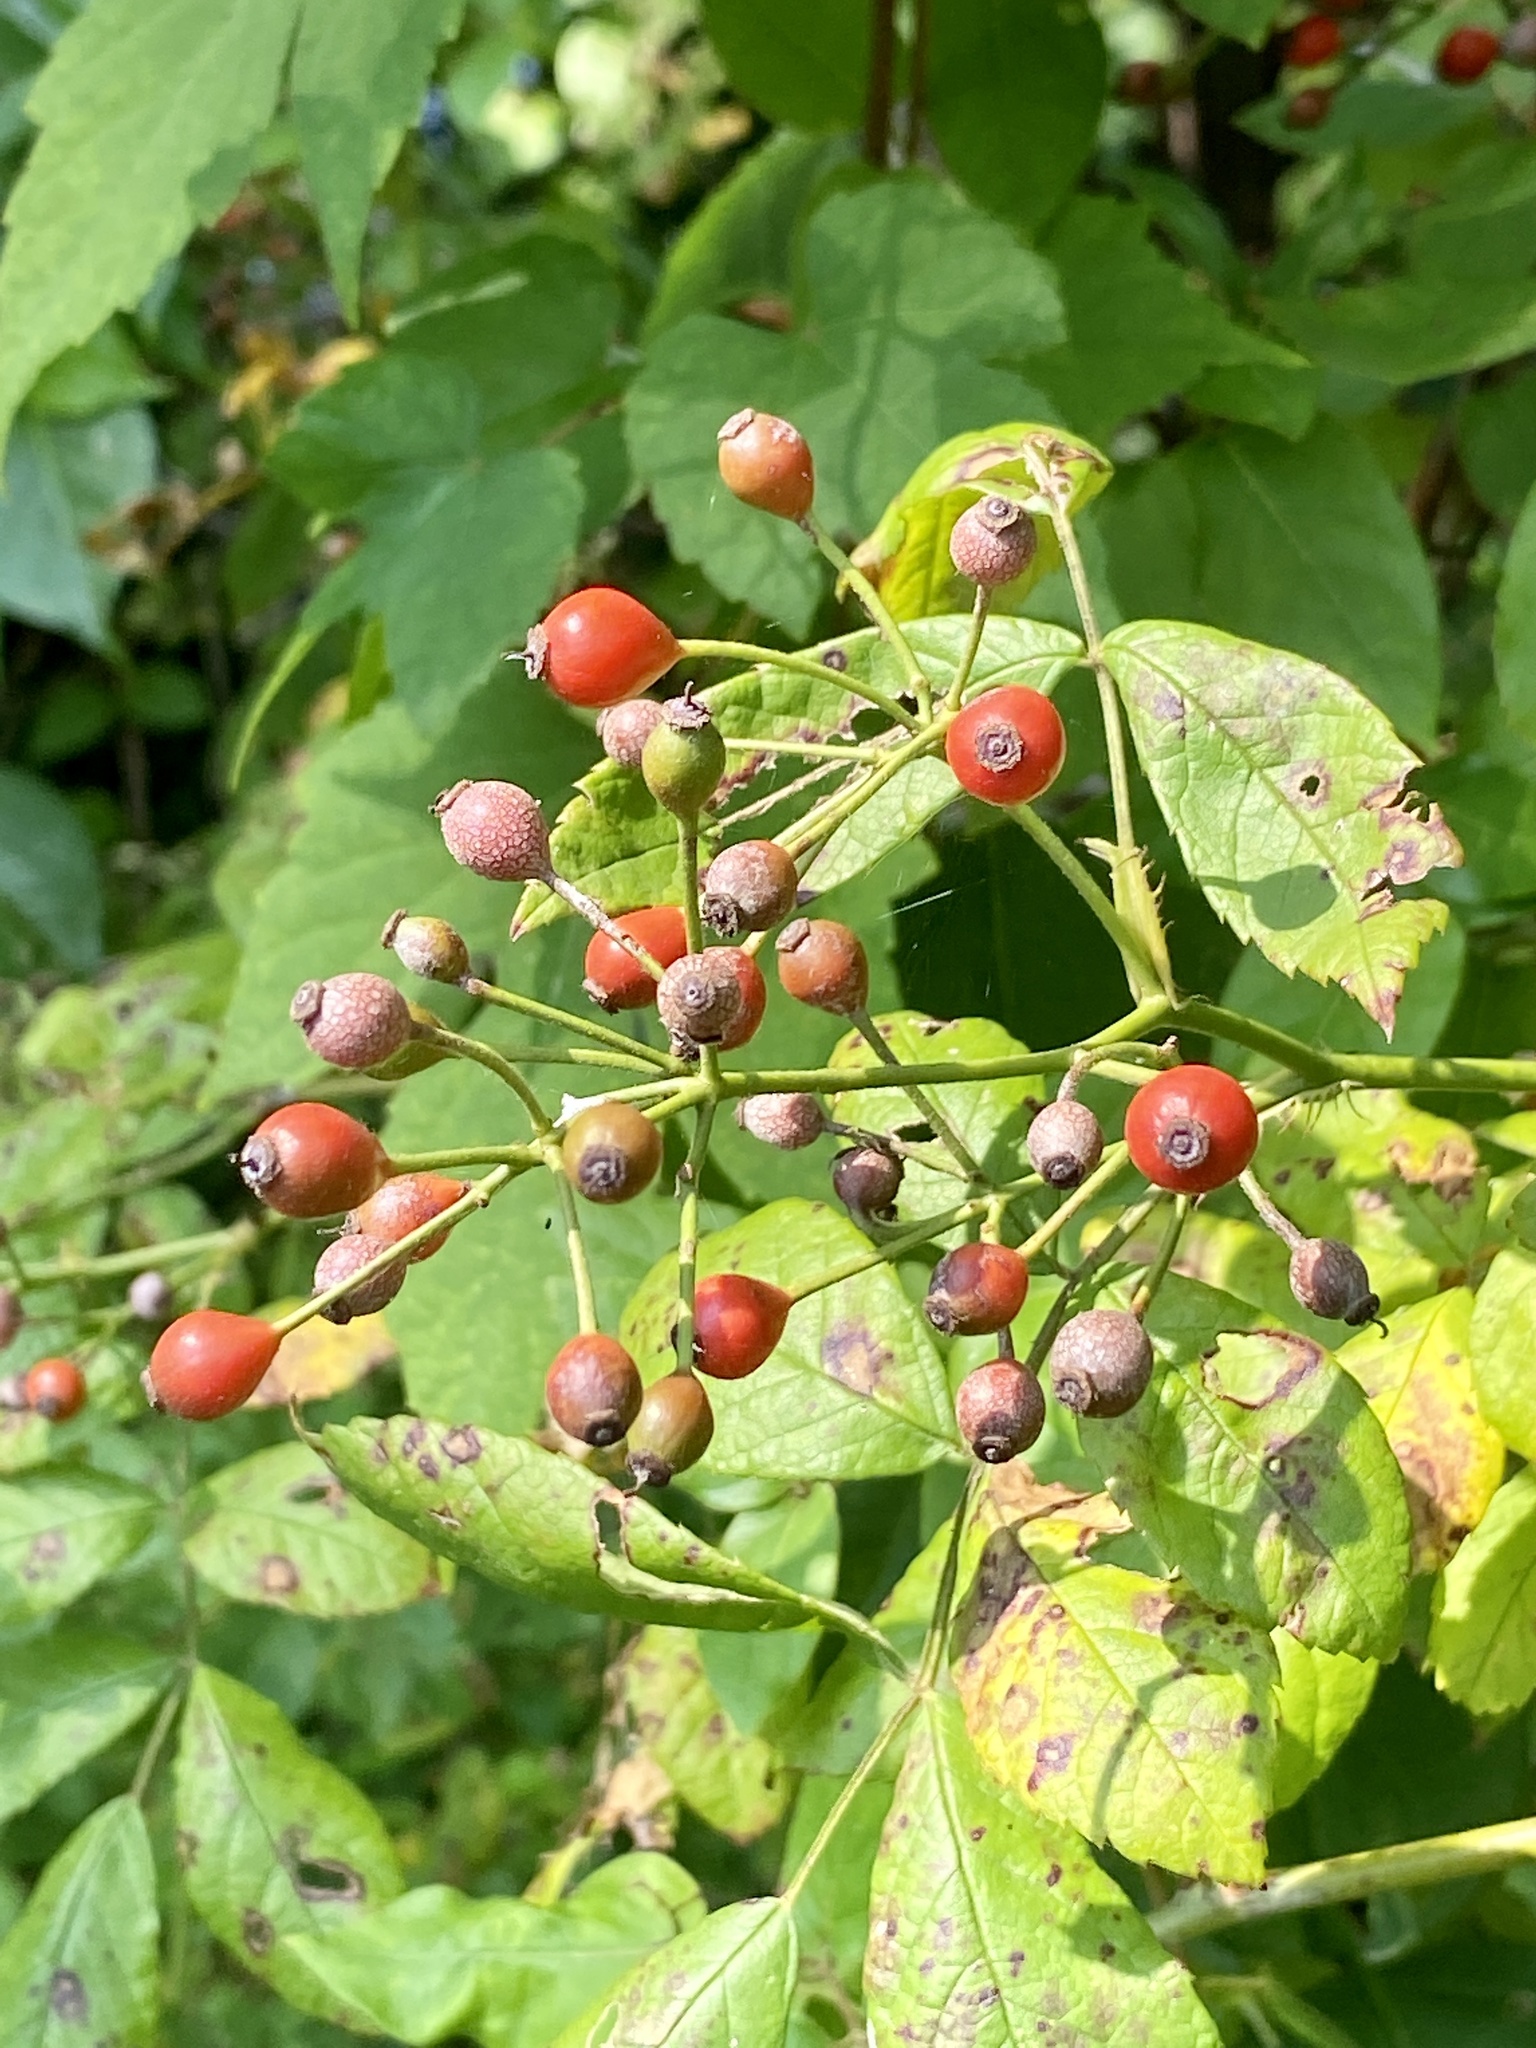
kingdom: Plantae
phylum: Tracheophyta
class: Magnoliopsida
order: Rosales
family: Rosaceae
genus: Rosa
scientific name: Rosa multiflora
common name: Multiflora rose
